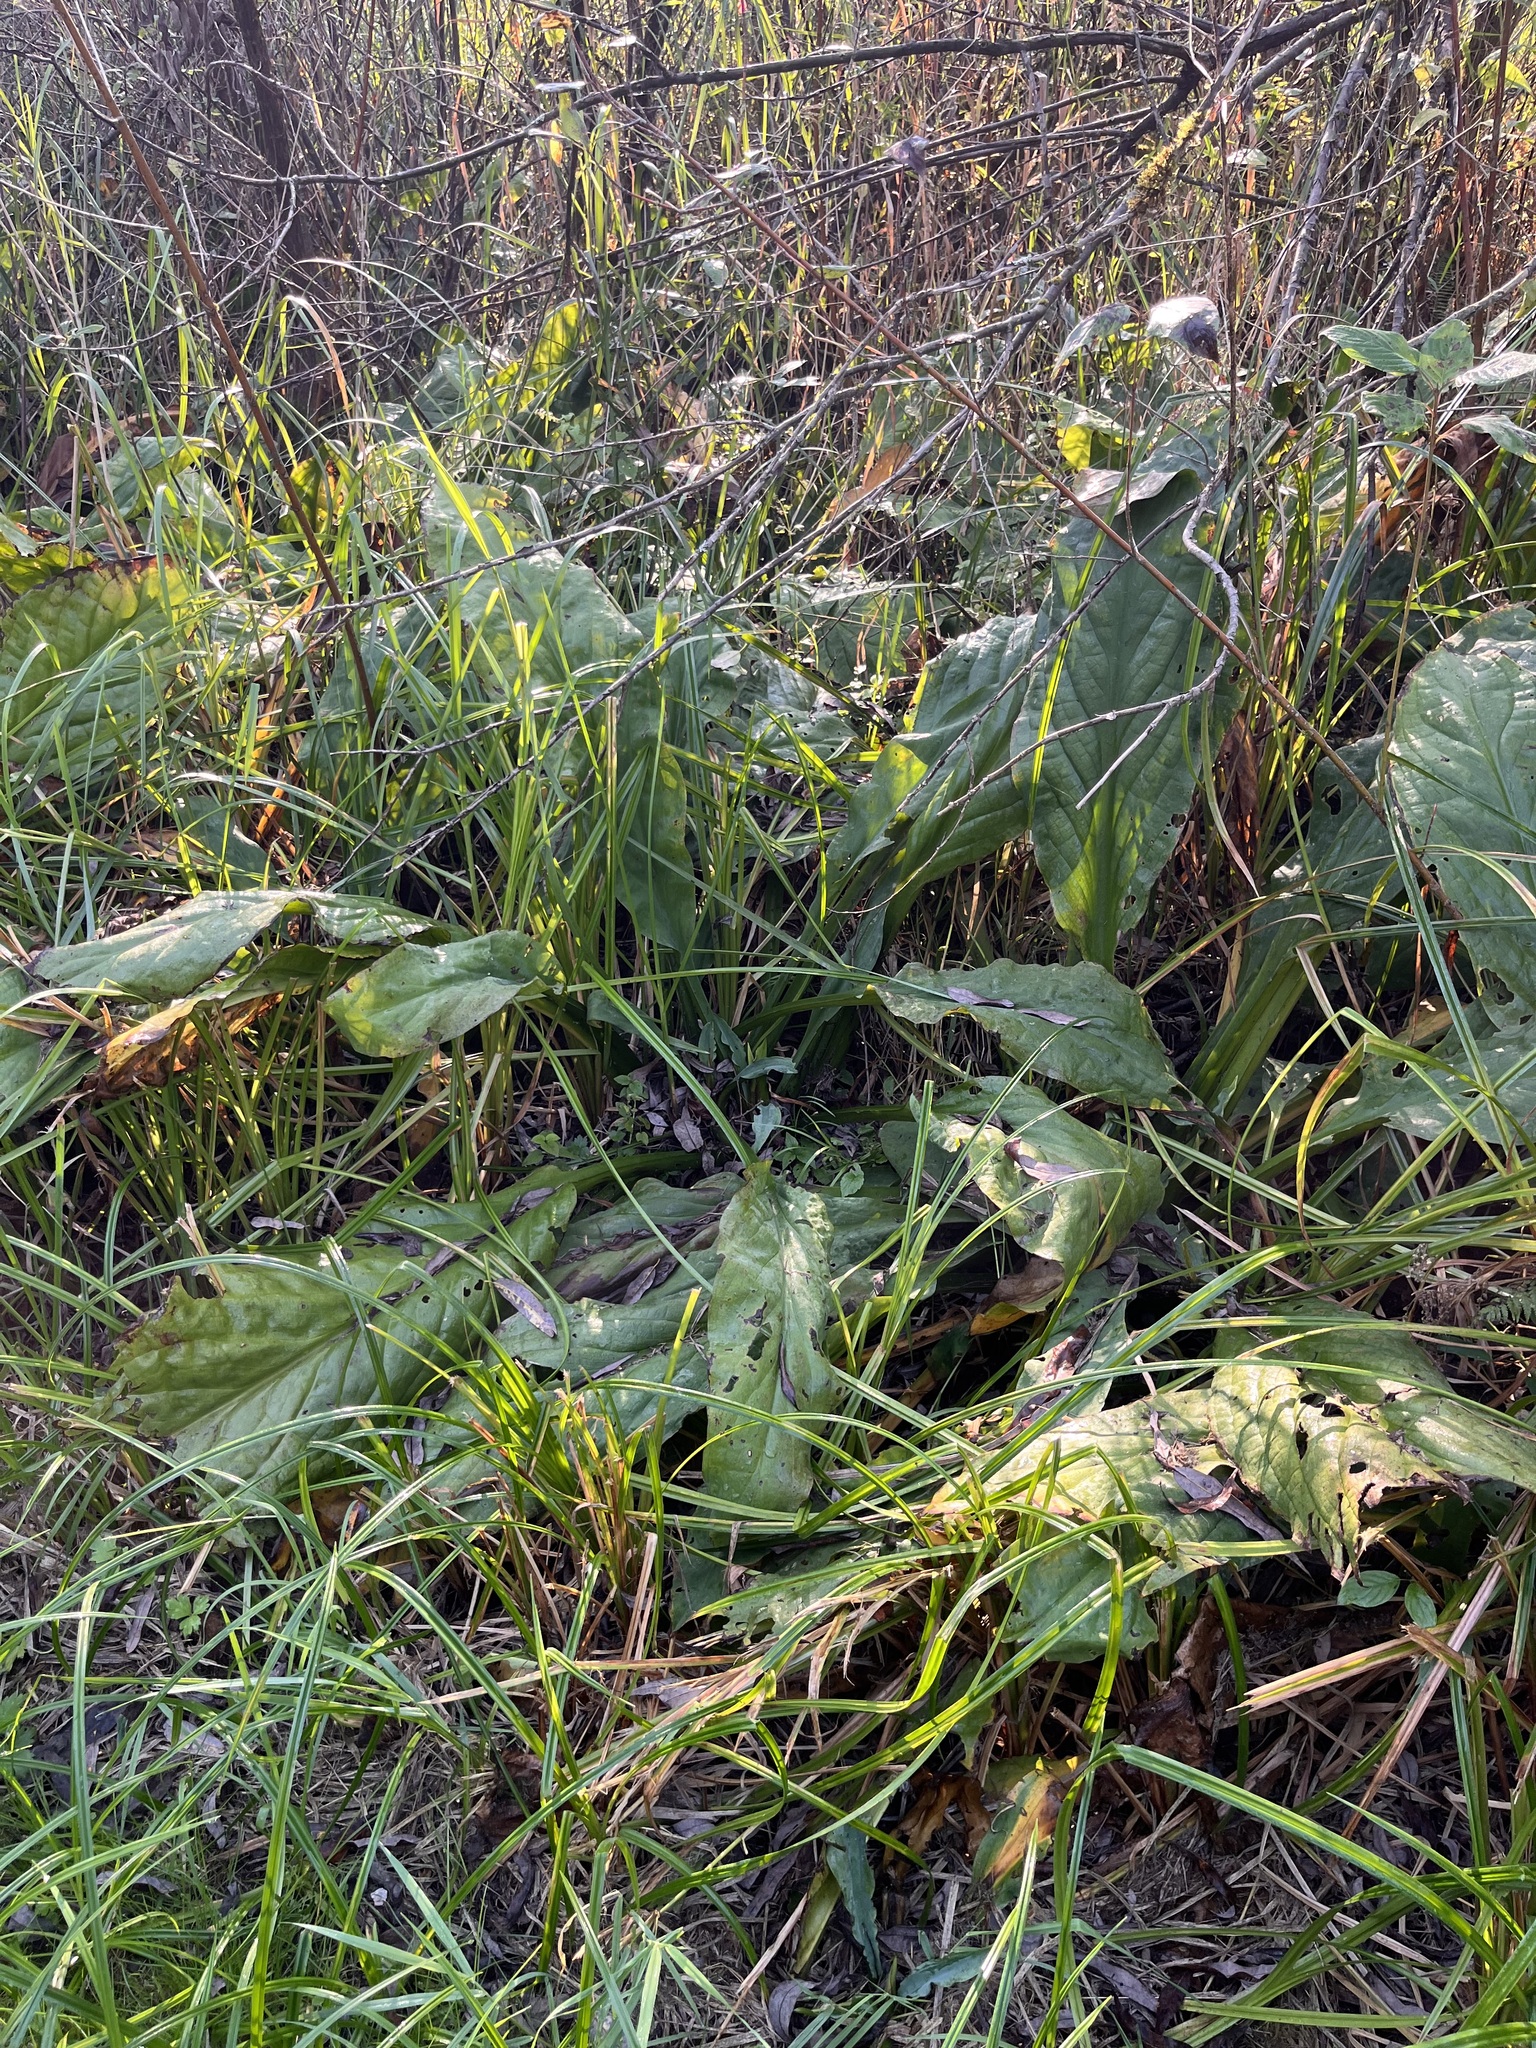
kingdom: Plantae
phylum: Tracheophyta
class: Liliopsida
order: Alismatales
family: Araceae
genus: Lysichiton
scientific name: Lysichiton americanus
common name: American skunk cabbage
